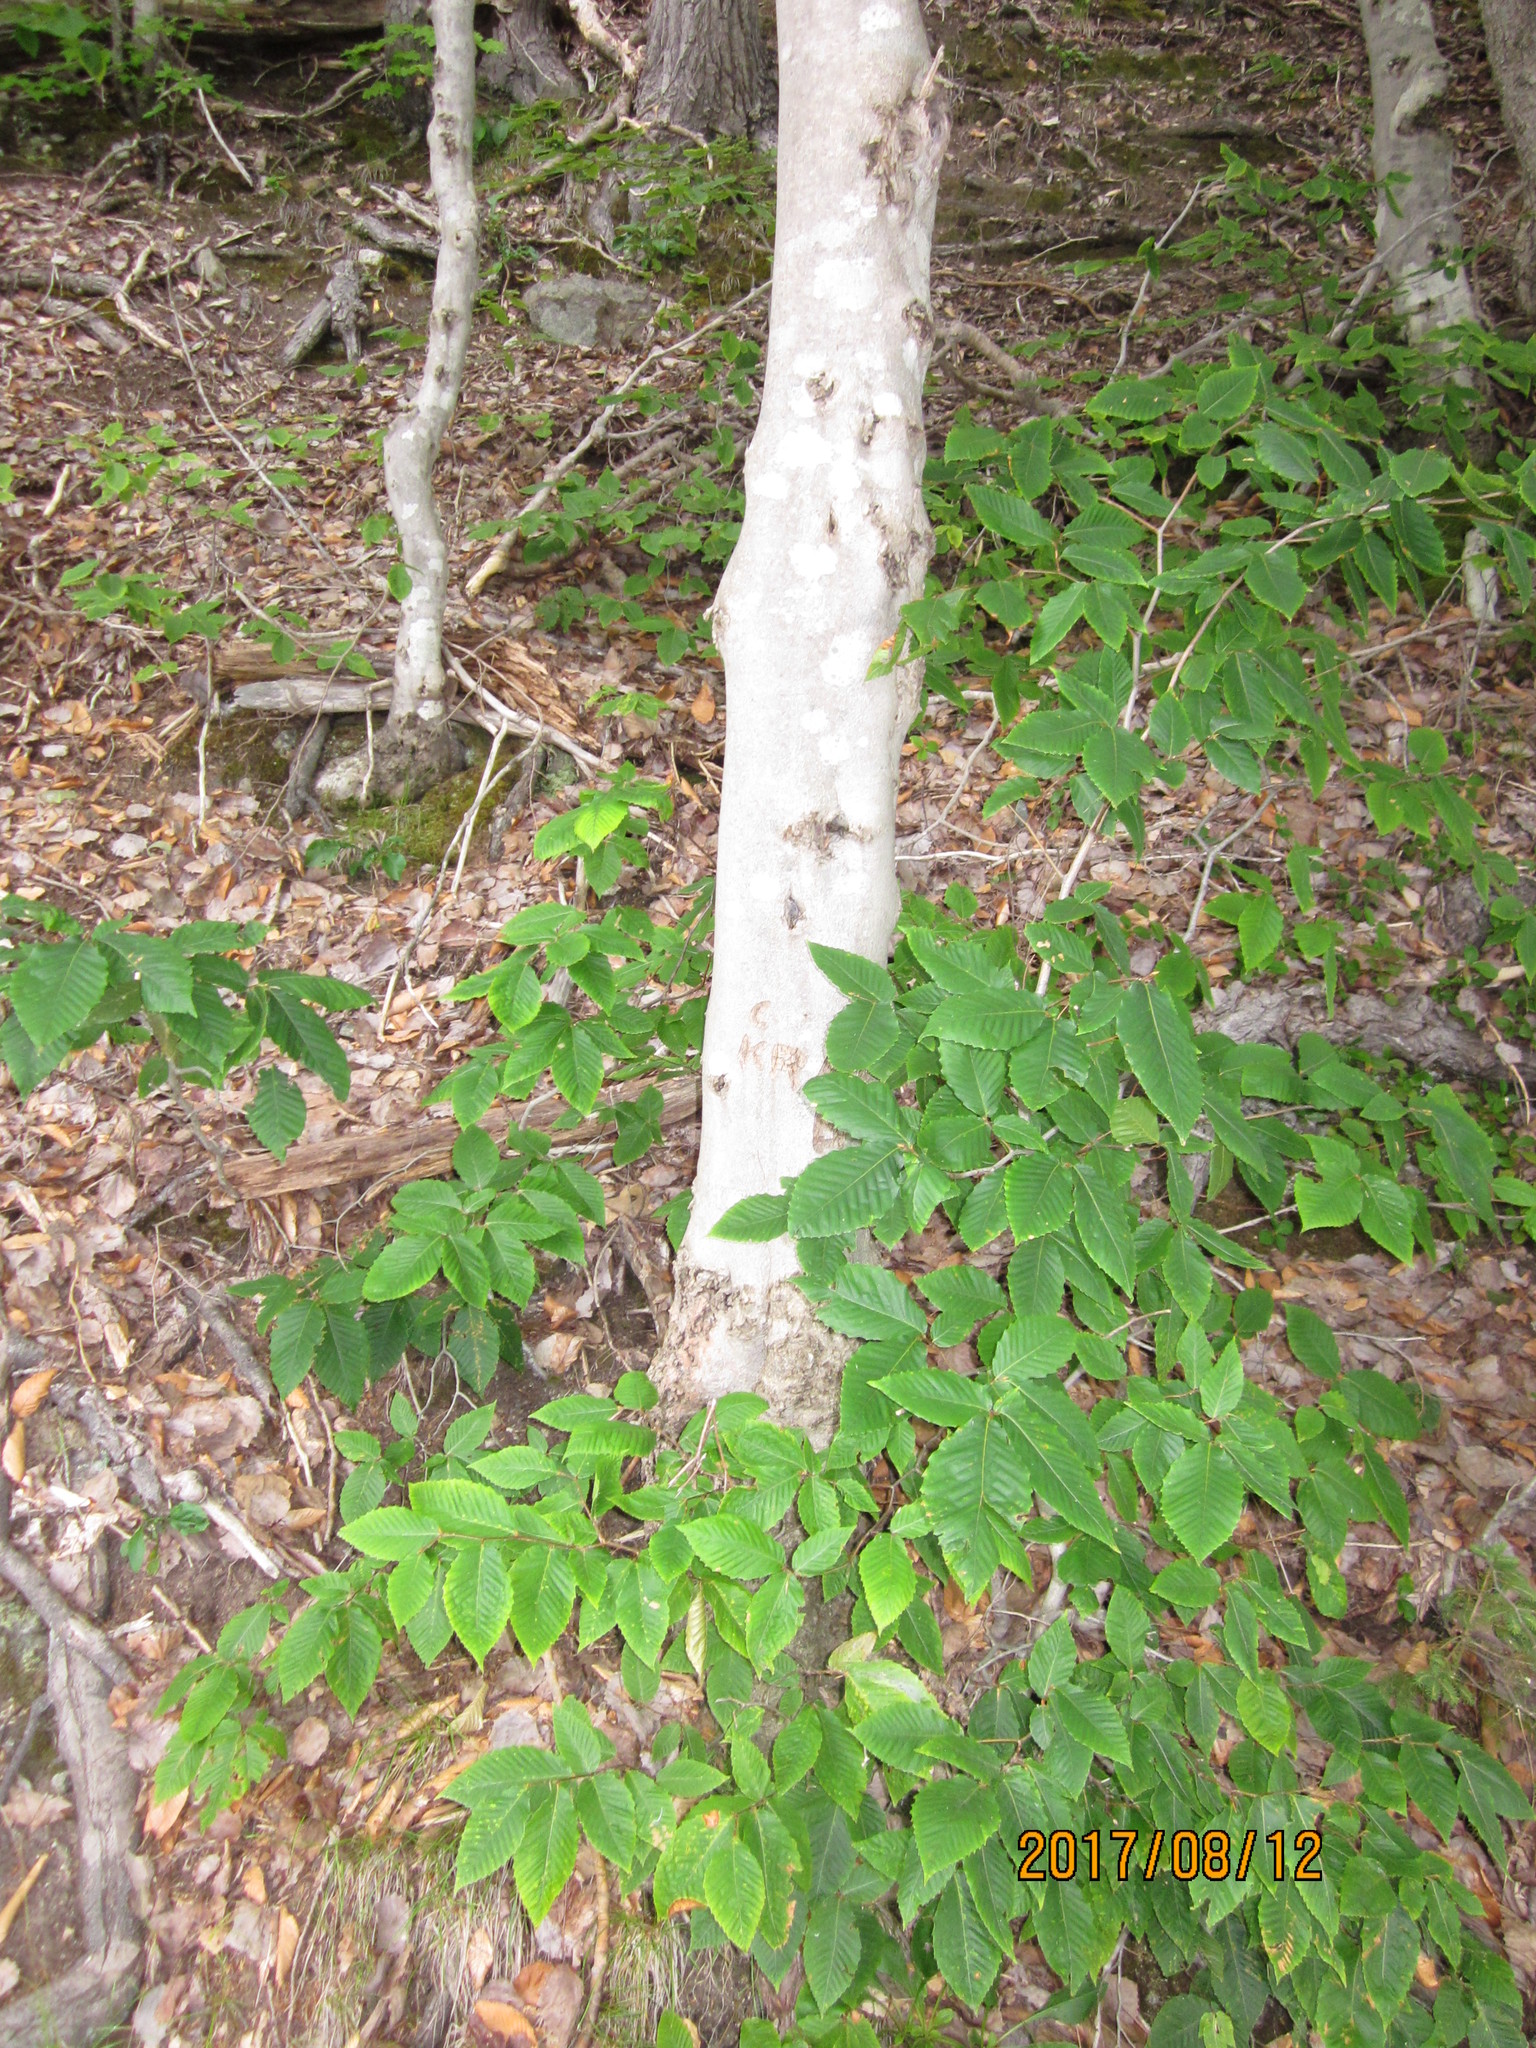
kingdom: Plantae
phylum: Tracheophyta
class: Magnoliopsida
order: Fagales
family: Fagaceae
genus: Fagus
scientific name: Fagus grandifolia
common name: American beech
